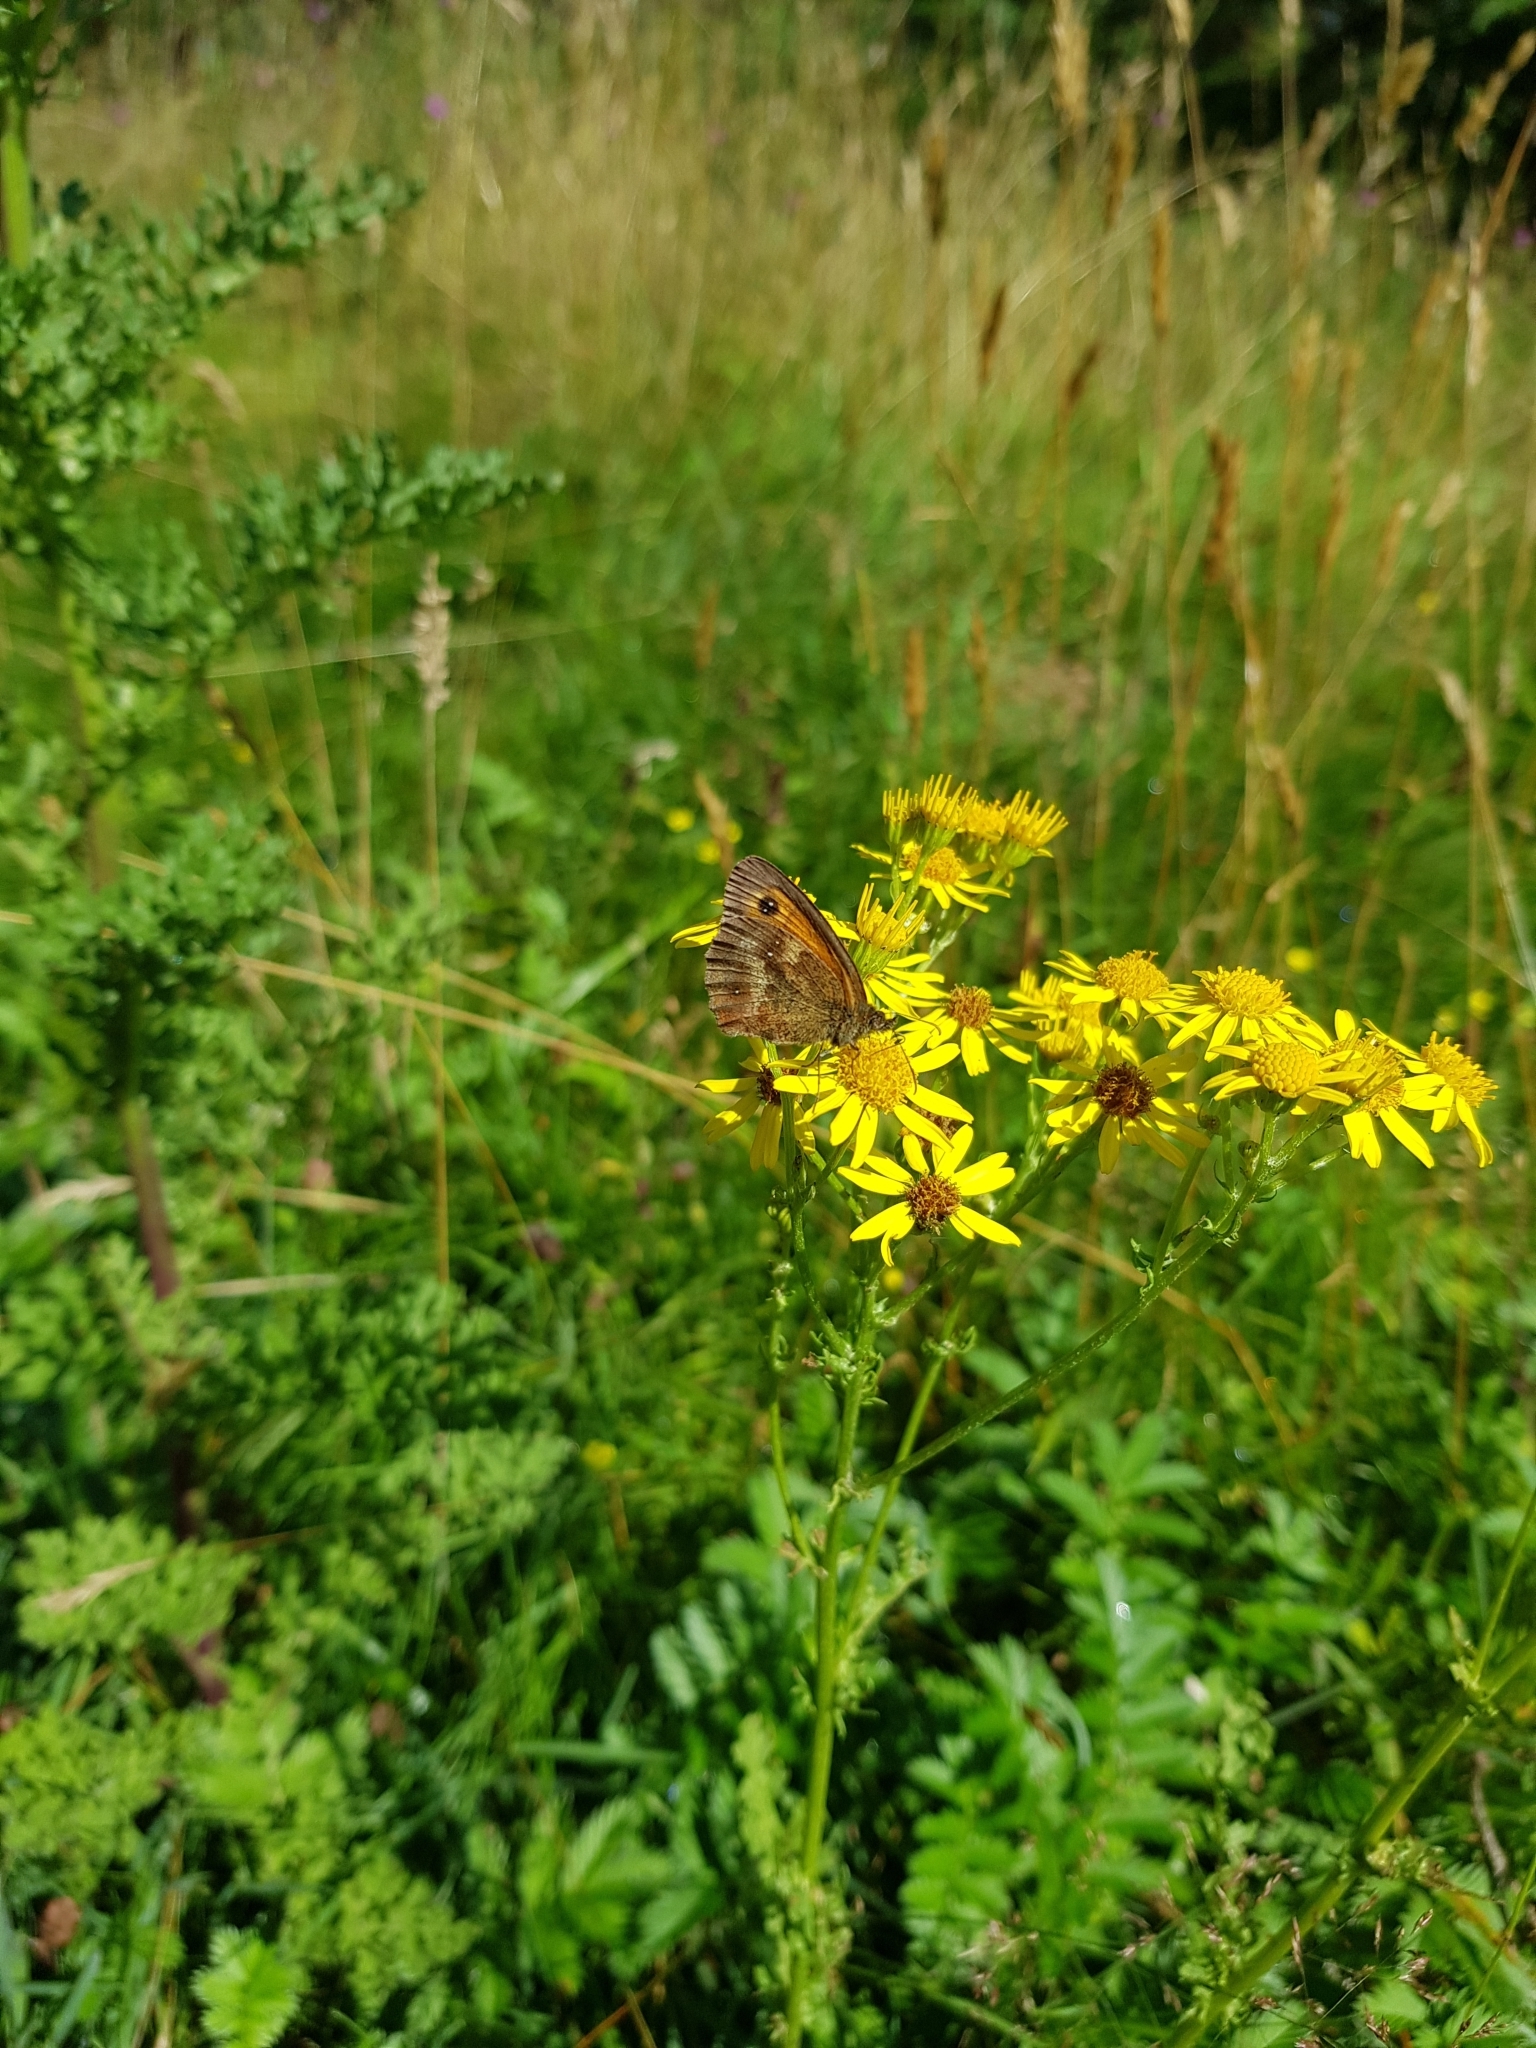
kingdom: Animalia
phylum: Arthropoda
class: Insecta
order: Lepidoptera
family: Nymphalidae
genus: Pyronia
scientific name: Pyronia tithonus
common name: Gatekeeper
